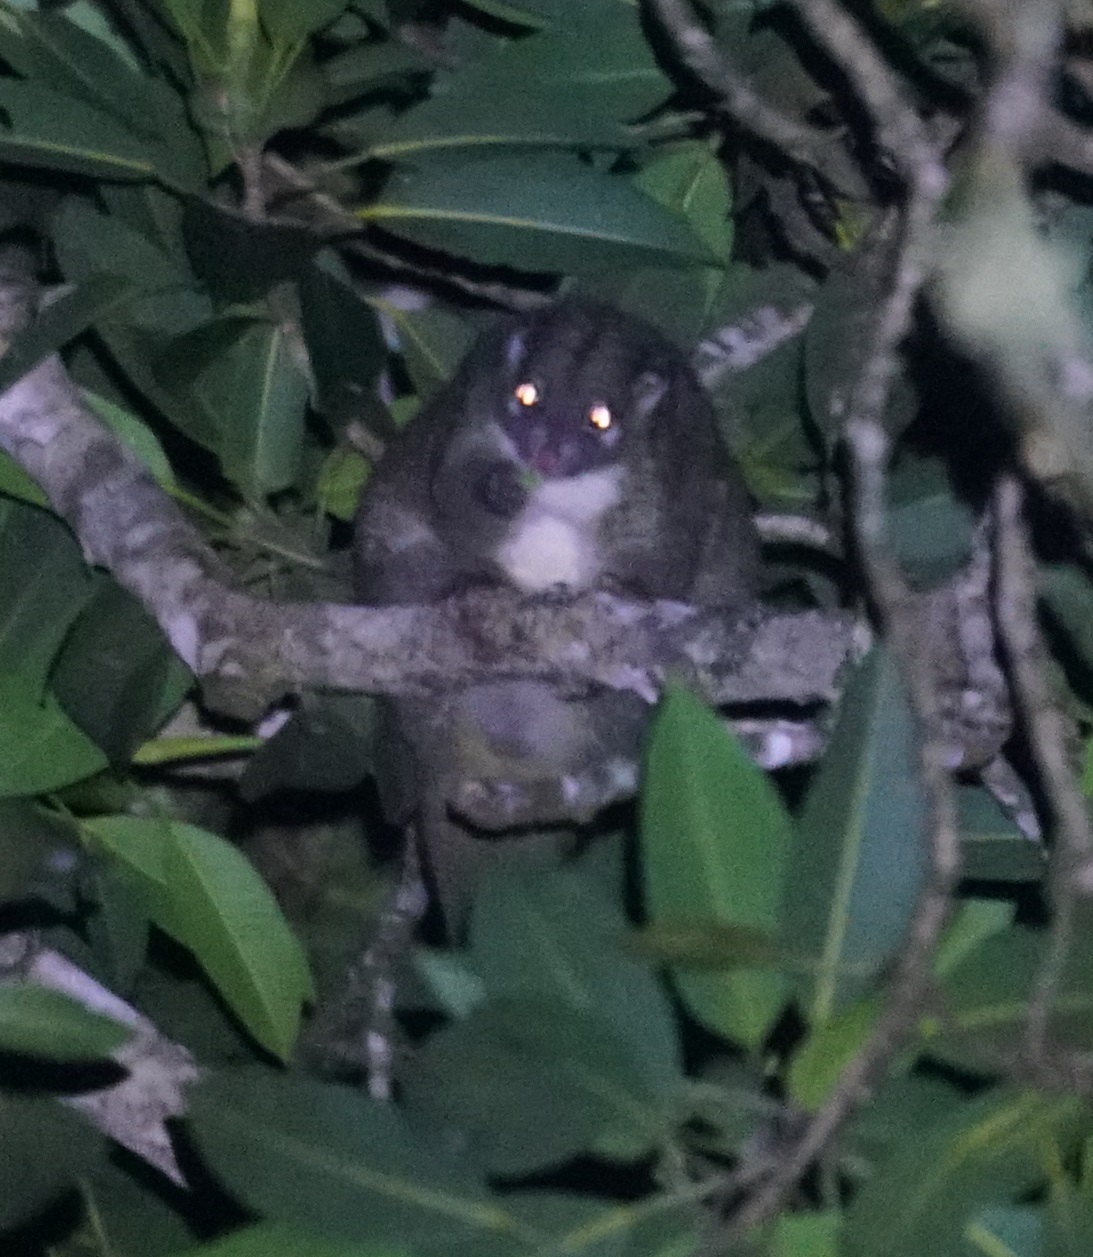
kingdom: Animalia
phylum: Chordata
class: Mammalia
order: Diprotodontia
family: Pseudocheiridae
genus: Pseudochirops
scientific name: Pseudochirops archeri
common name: Green ringtail
